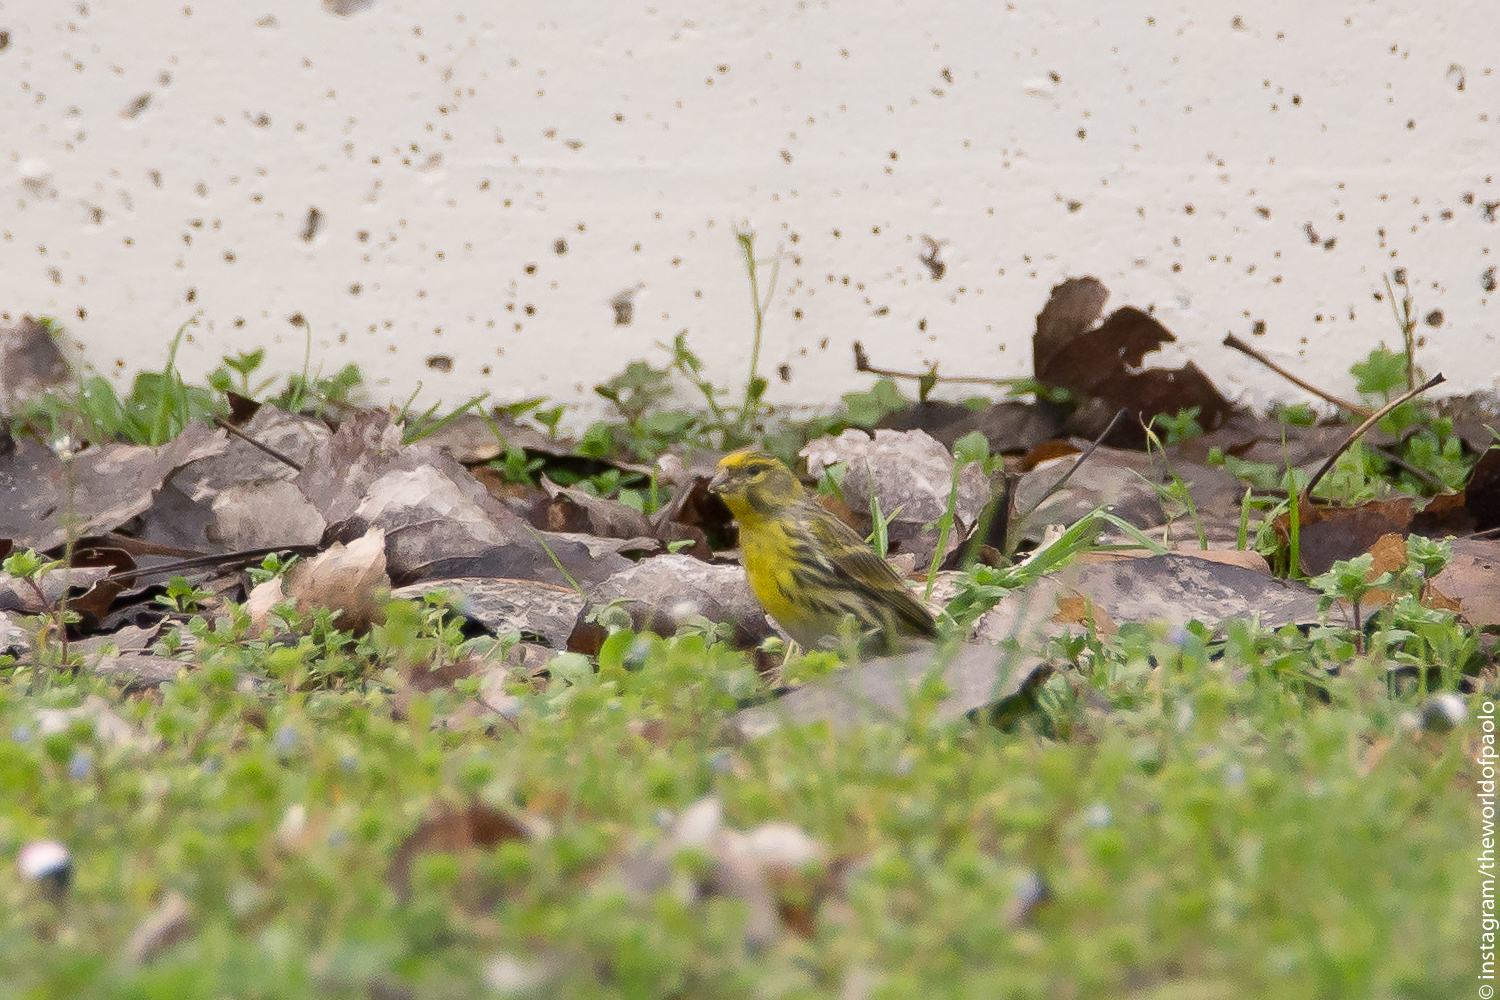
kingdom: Animalia
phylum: Chordata
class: Aves
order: Passeriformes
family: Fringillidae
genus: Serinus
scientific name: Serinus serinus
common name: European serin
